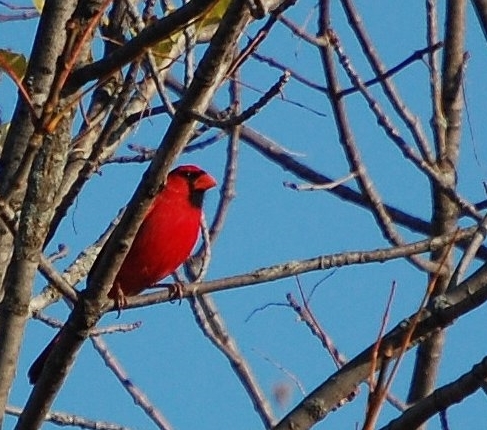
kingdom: Animalia
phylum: Chordata
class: Aves
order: Passeriformes
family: Cardinalidae
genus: Cardinalis
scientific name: Cardinalis cardinalis
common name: Northern cardinal
